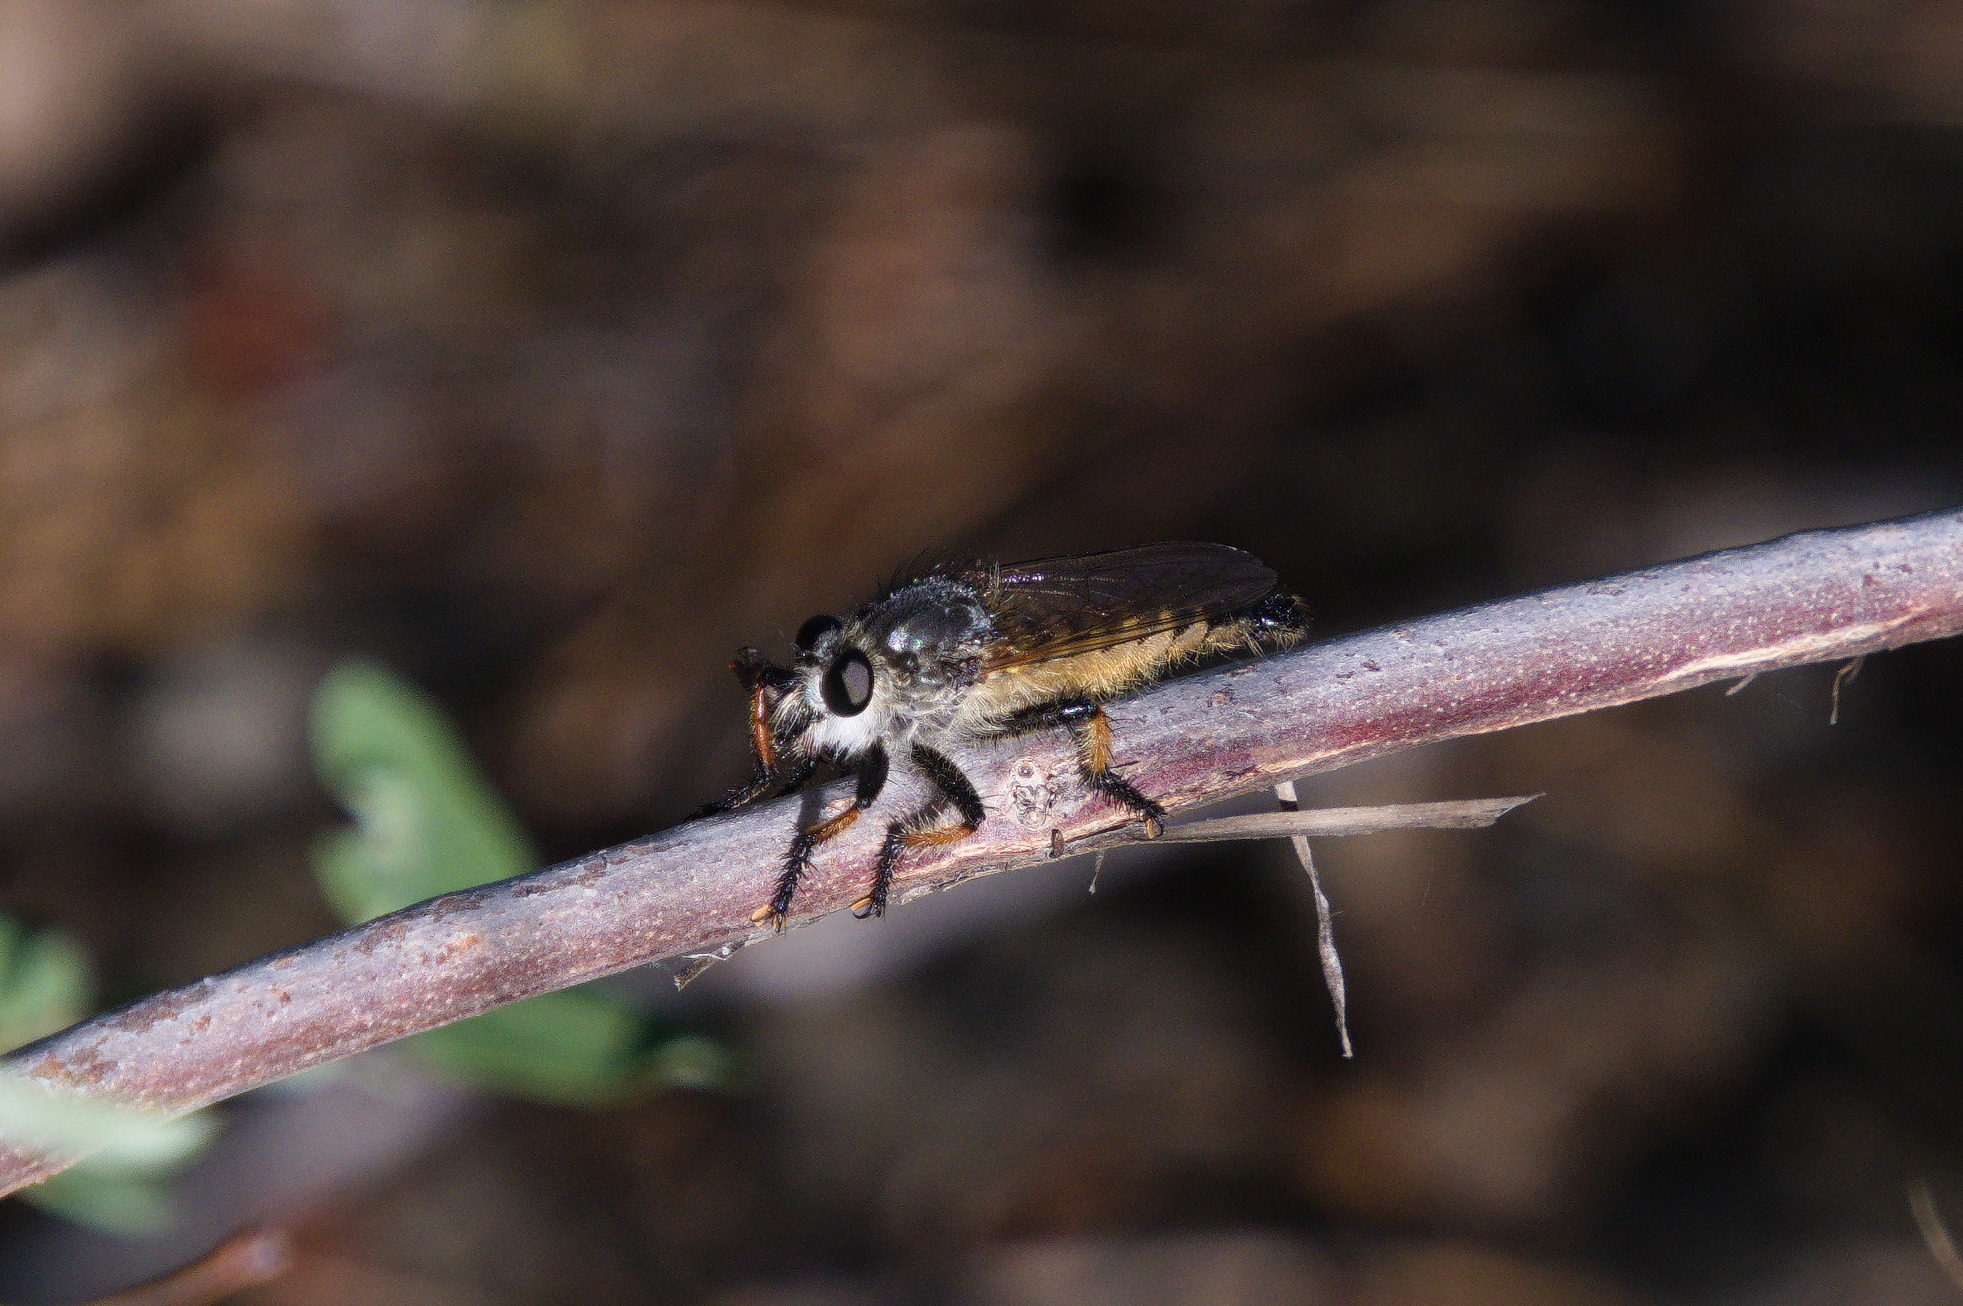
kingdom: Animalia
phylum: Arthropoda
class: Insecta
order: Diptera
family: Asilidae
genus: Promachus
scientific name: Promachus sackeni
